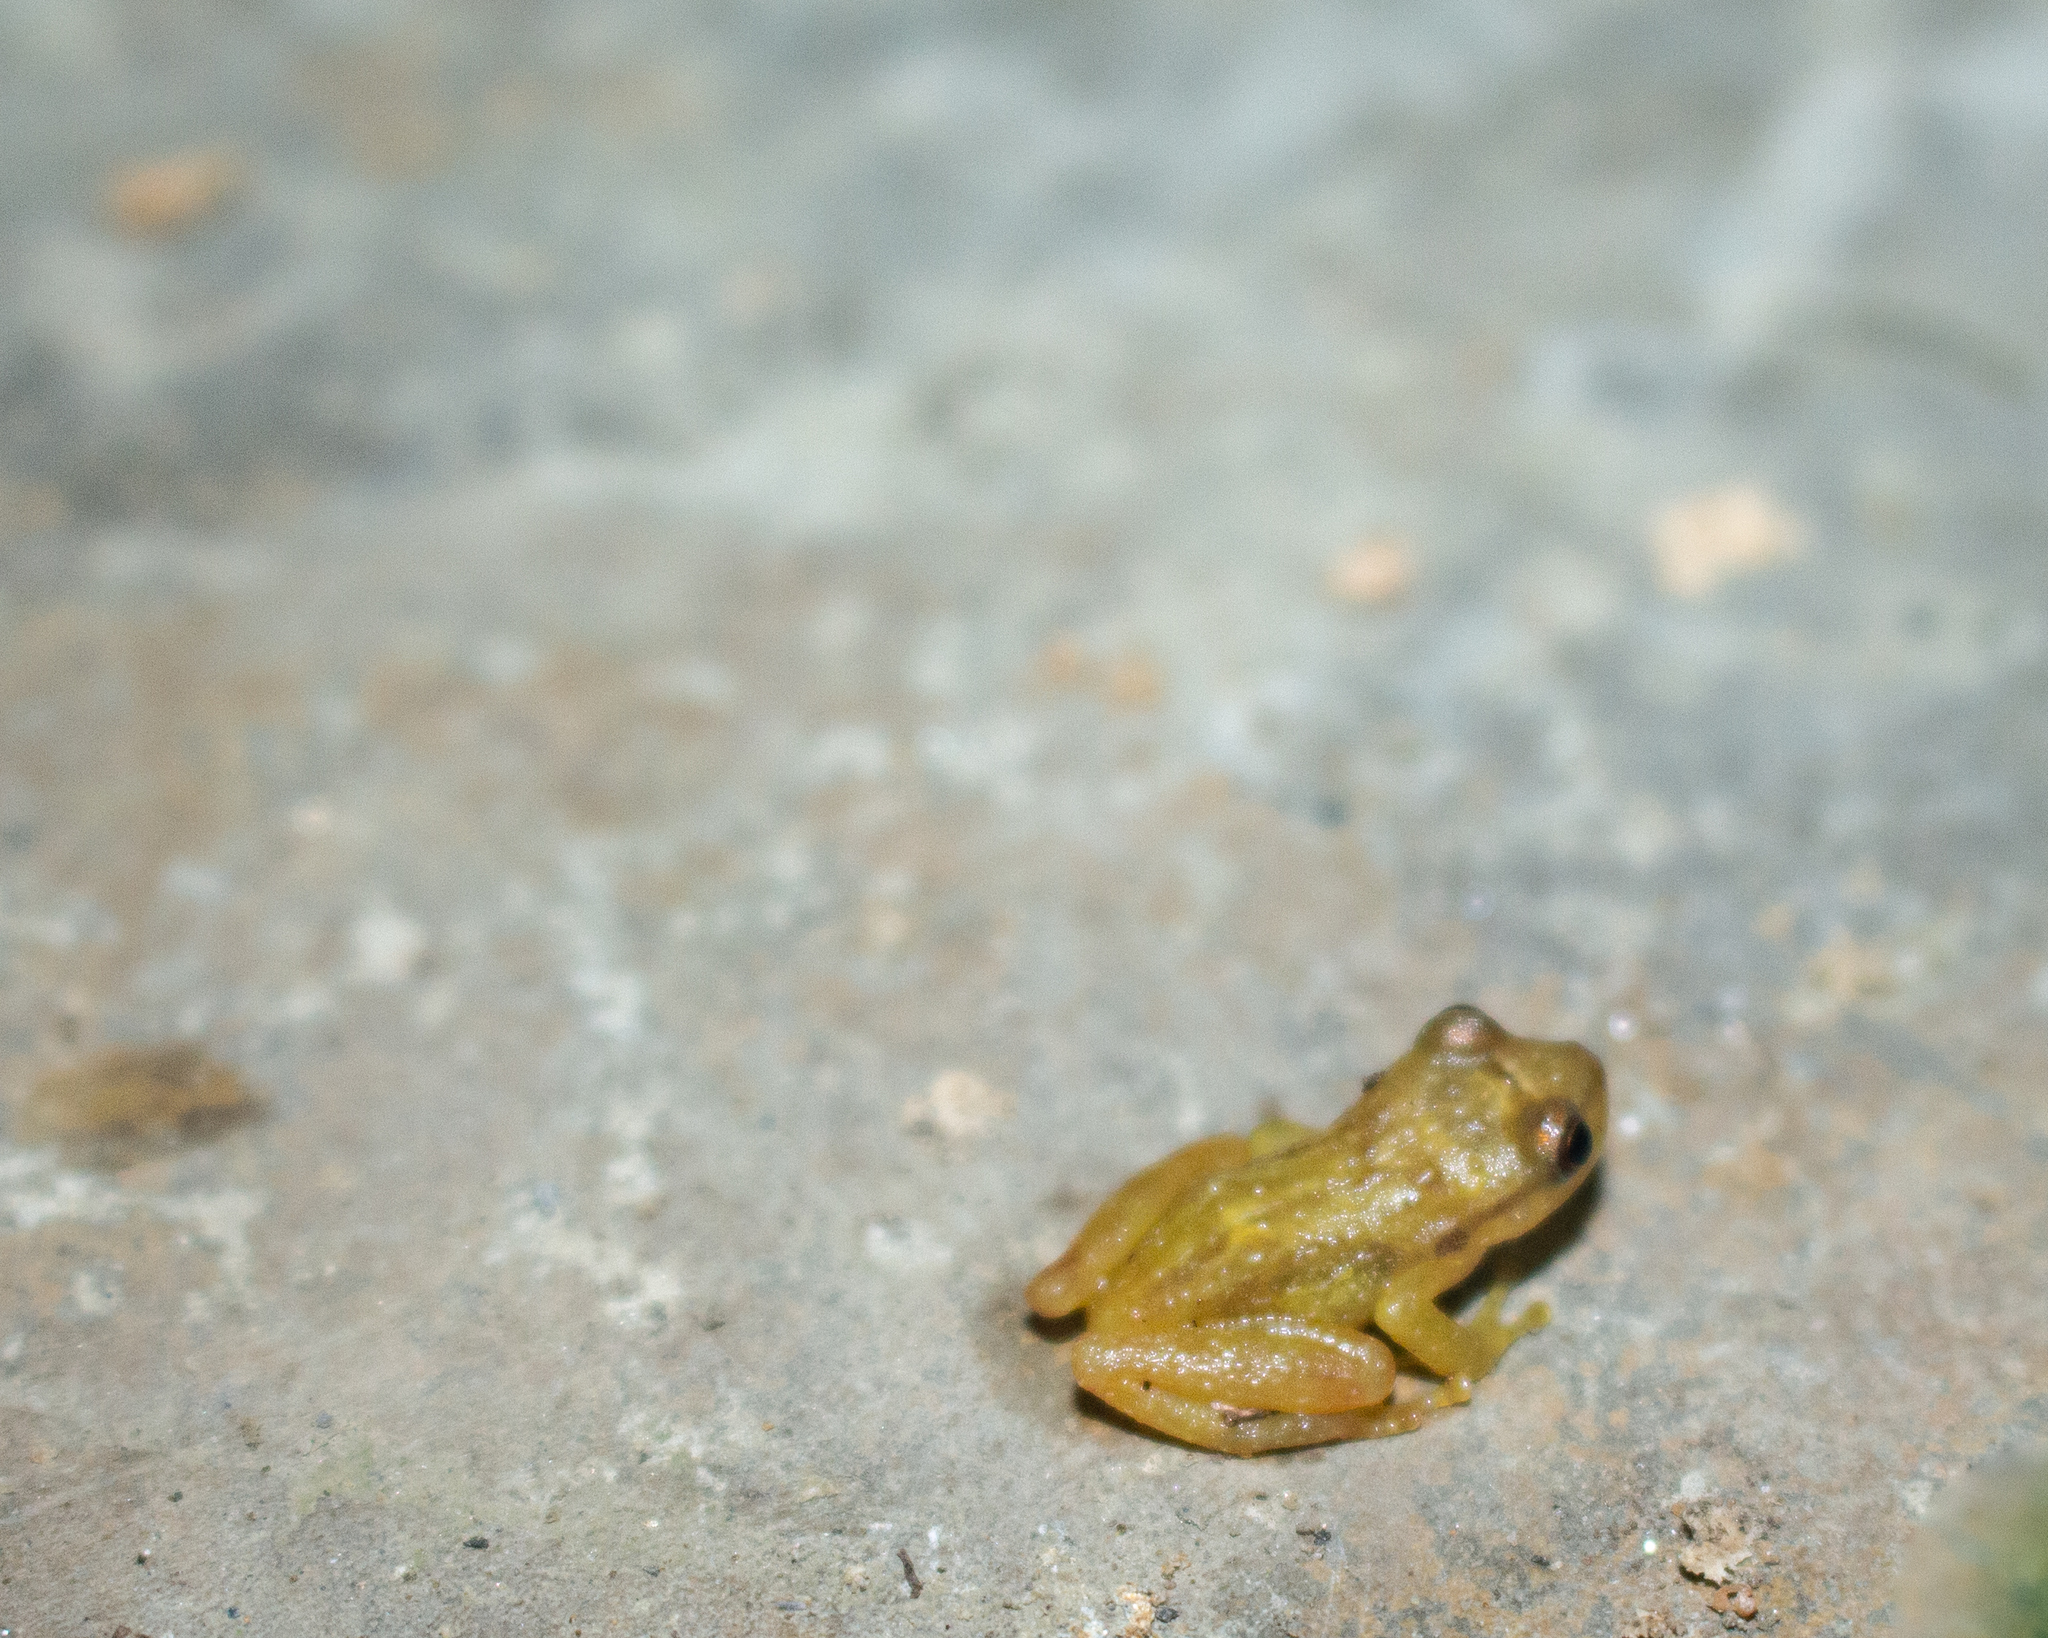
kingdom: Animalia
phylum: Chordata
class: Amphibia
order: Anura
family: Craugastoridae
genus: Tachiramantis
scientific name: Tachiramantis
